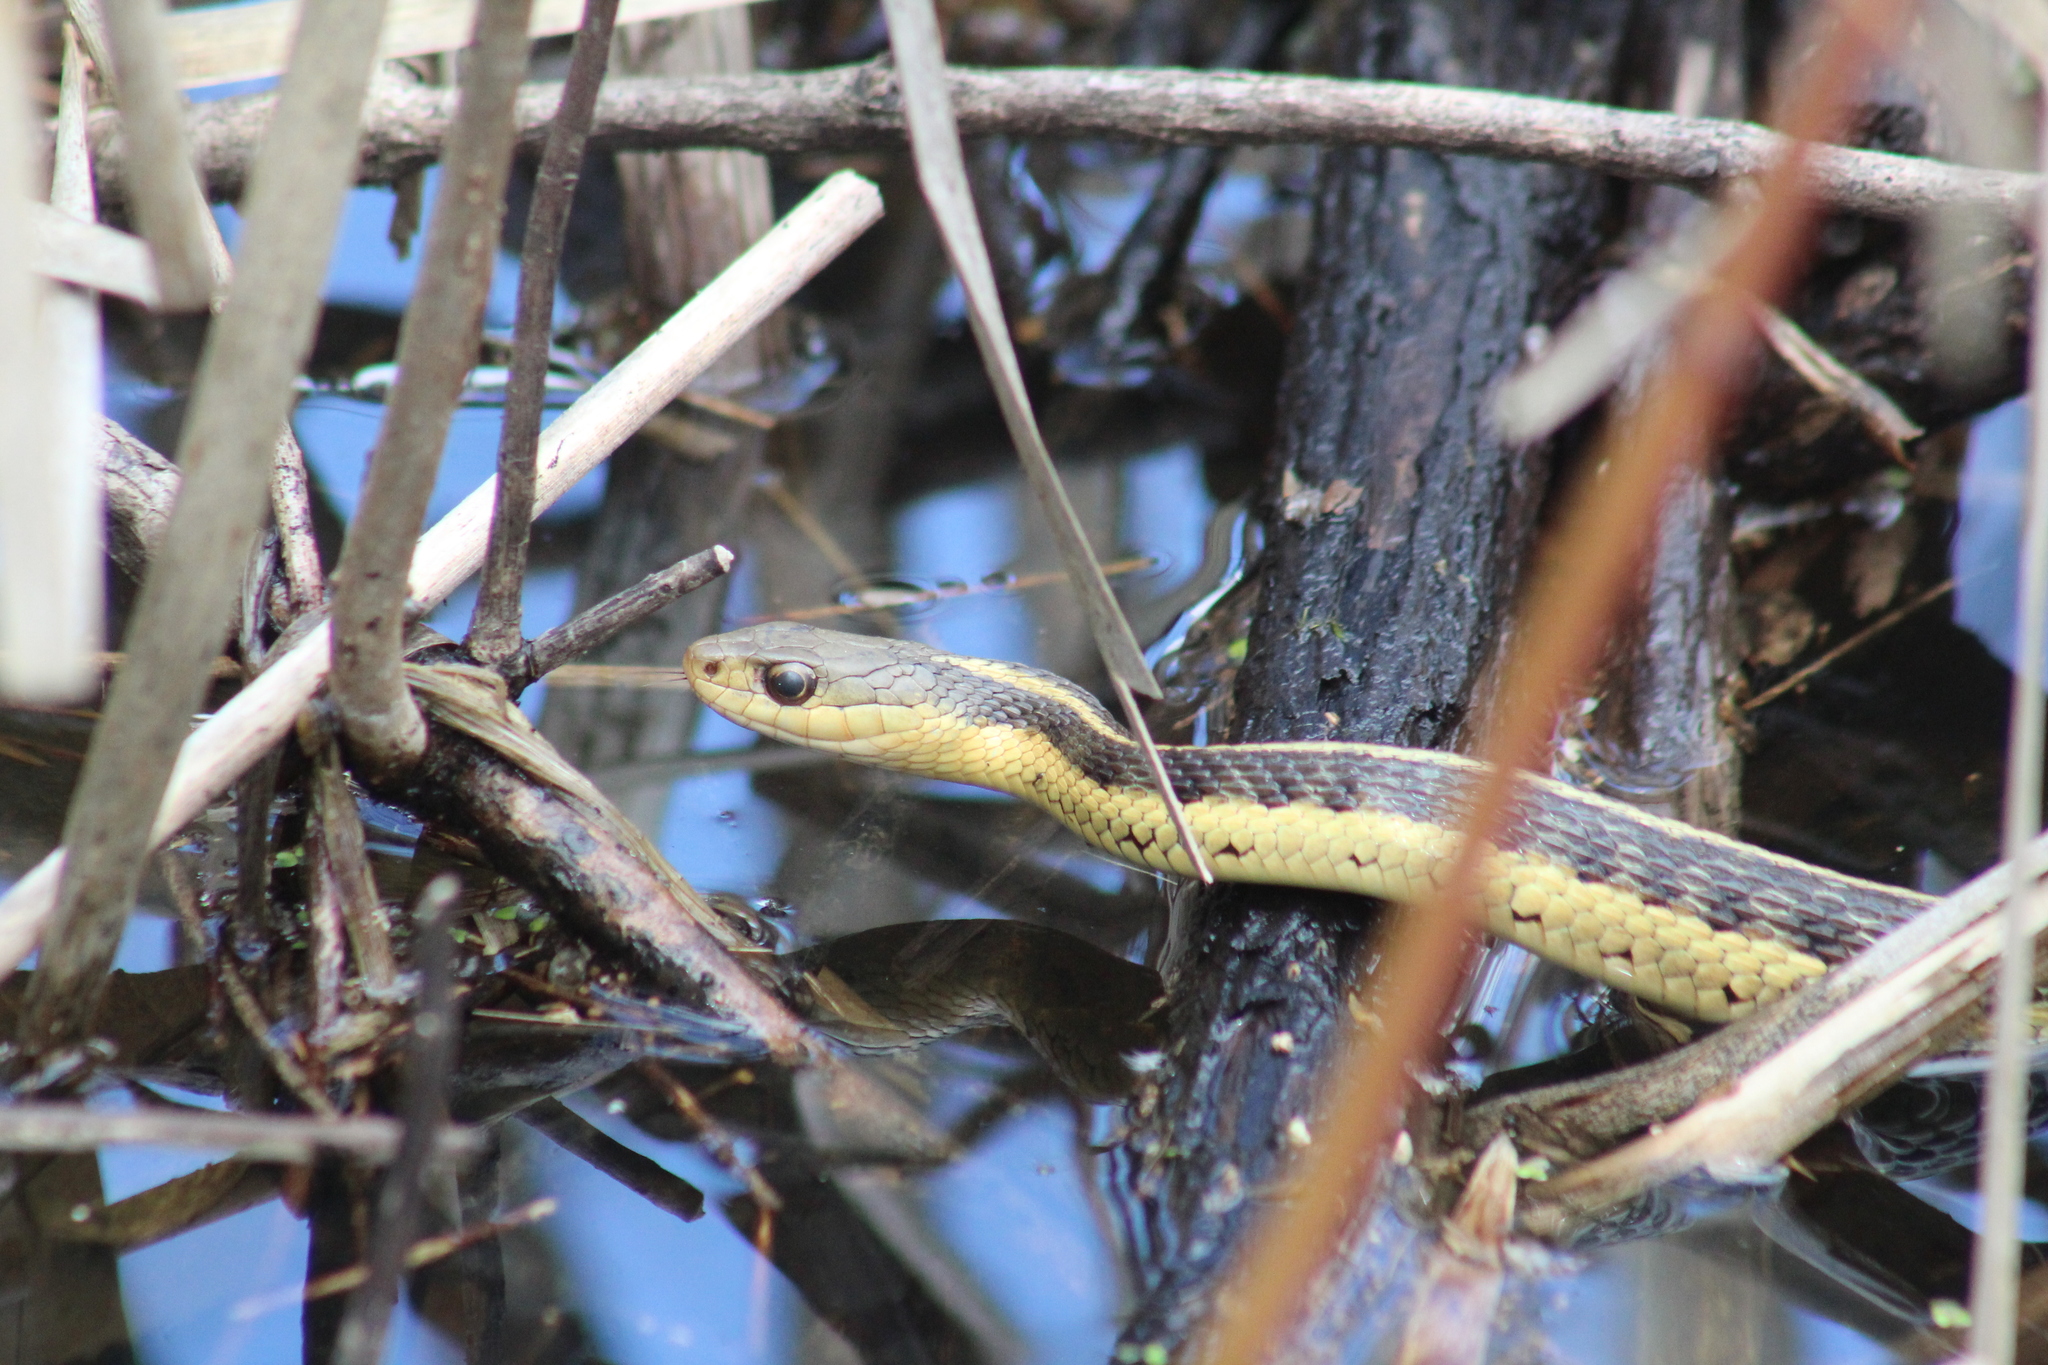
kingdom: Animalia
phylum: Chordata
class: Squamata
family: Colubridae
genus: Thamnophis
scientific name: Thamnophis sirtalis
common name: Common garter snake
